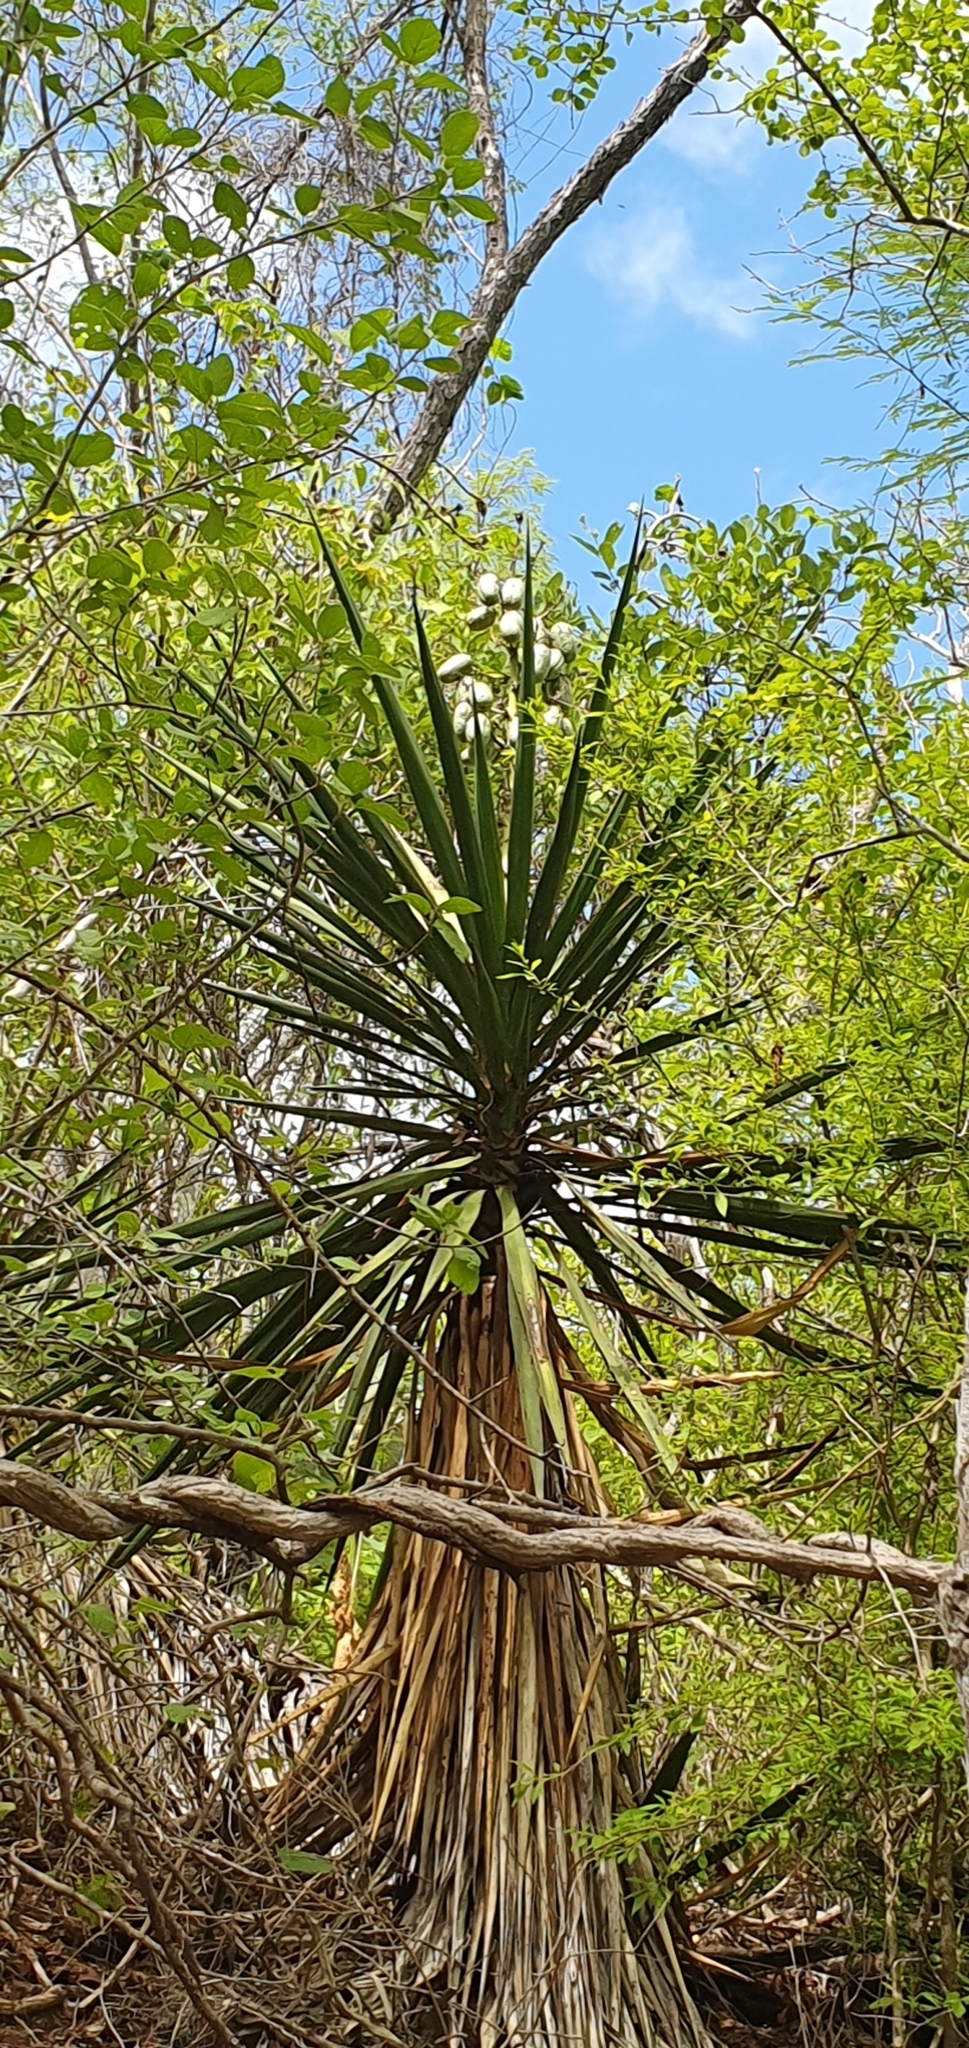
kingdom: Plantae
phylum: Tracheophyta
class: Liliopsida
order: Asparagales
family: Asparagaceae
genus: Yucca
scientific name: Yucca capensis
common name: Cape region yucca
